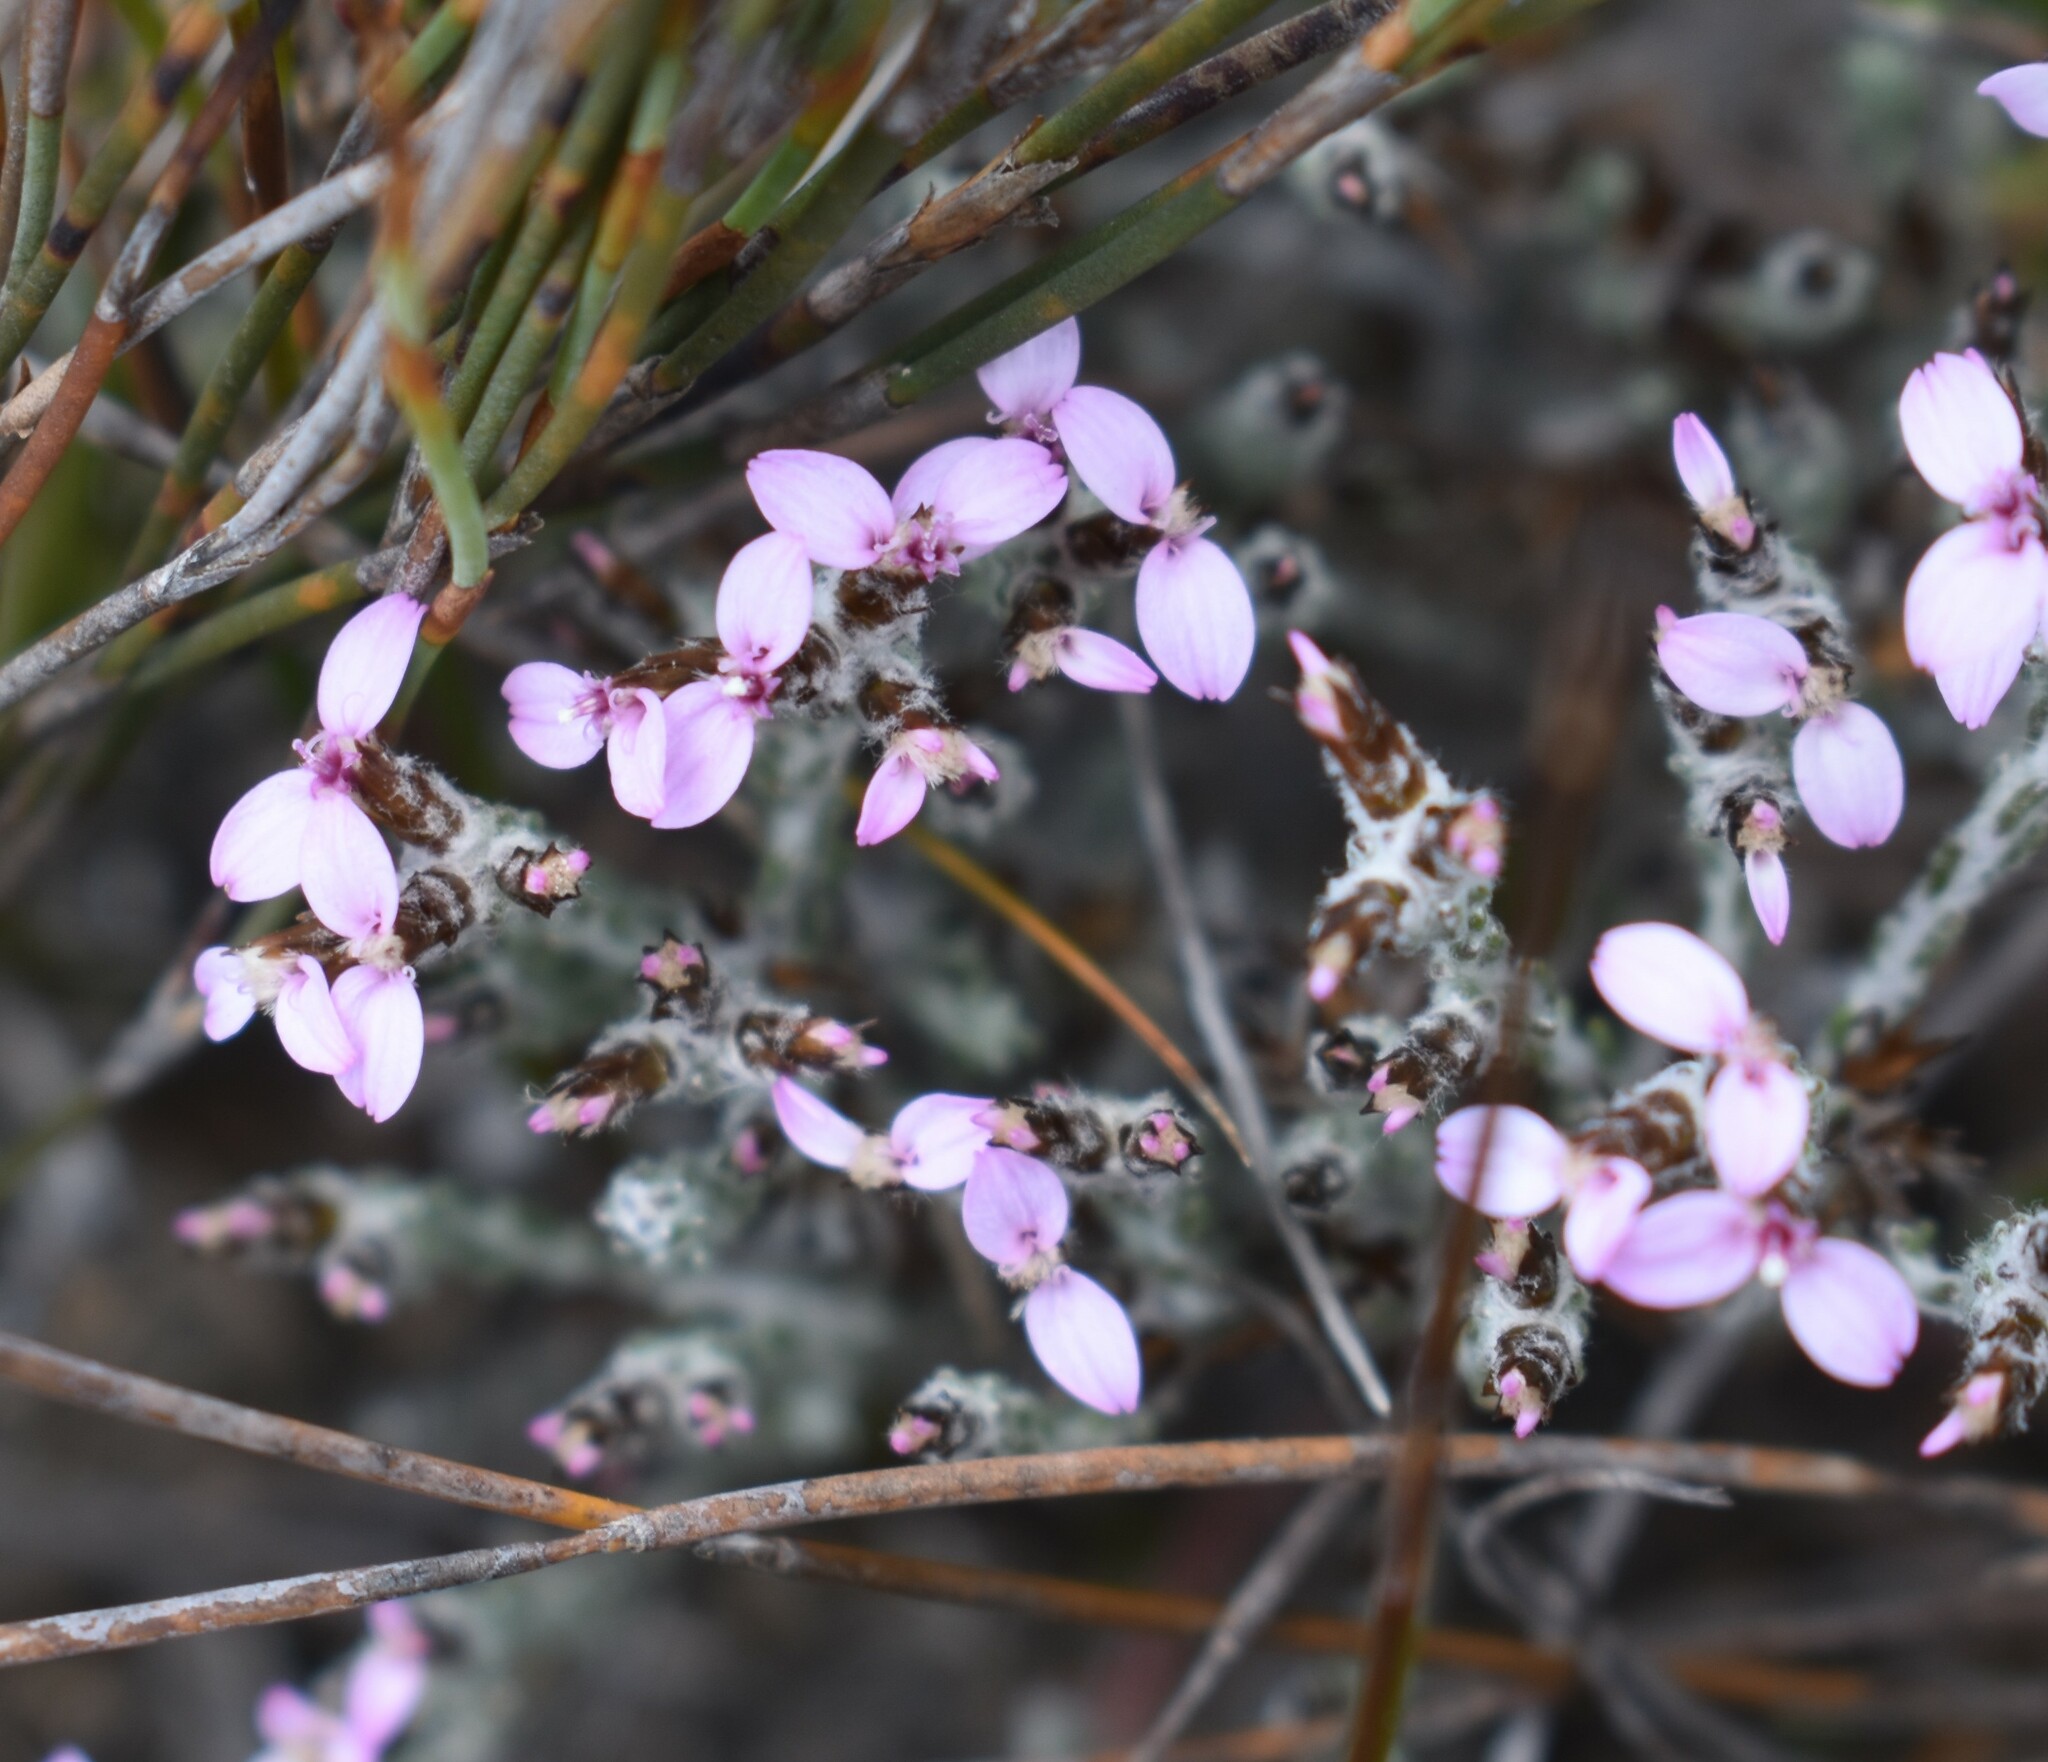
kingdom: Plantae
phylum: Tracheophyta
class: Magnoliopsida
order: Asterales
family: Asteraceae
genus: Disparago
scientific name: Disparago kolbei
